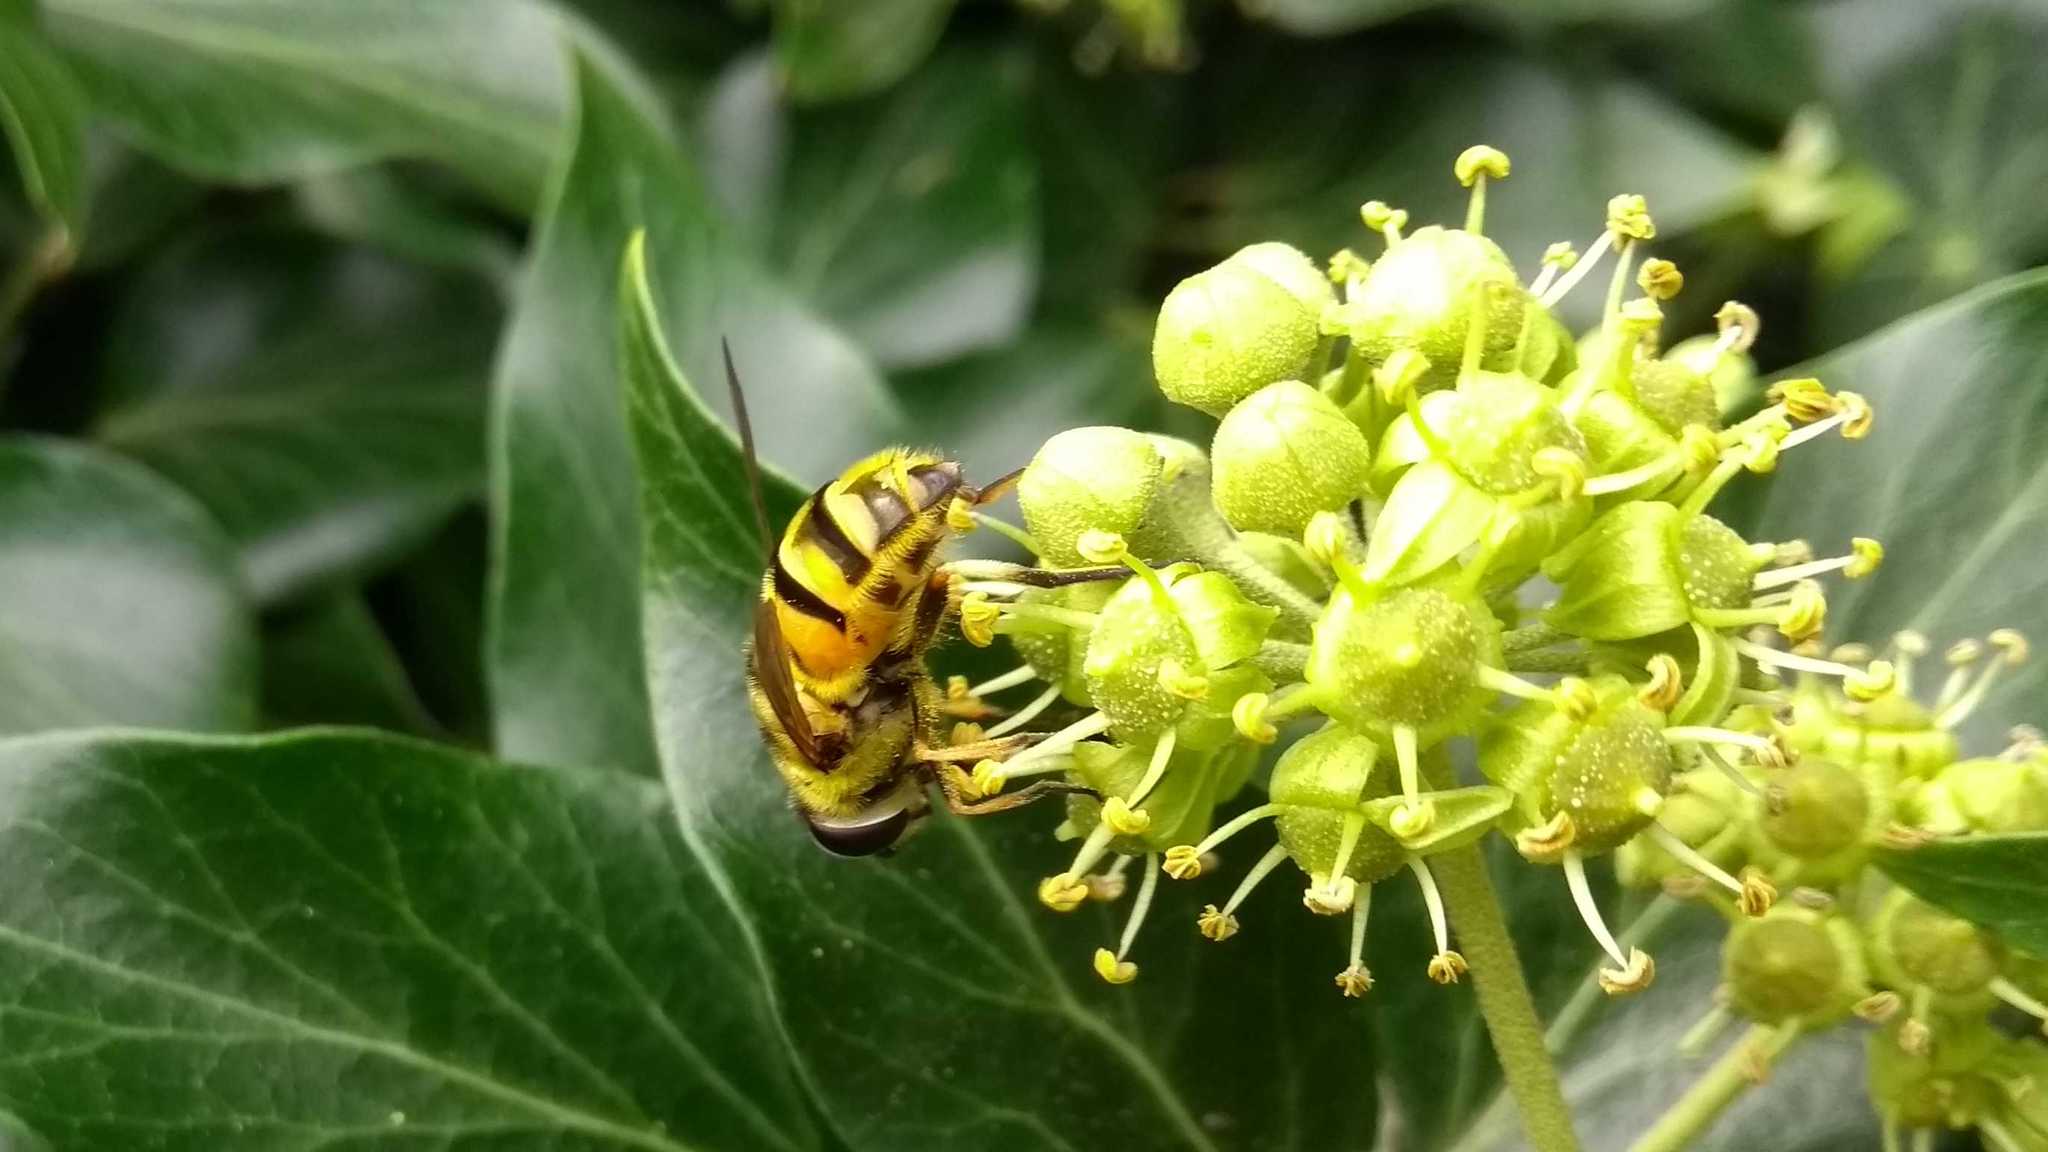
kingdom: Animalia
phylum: Arthropoda
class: Insecta
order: Diptera
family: Syrphidae
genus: Myathropa
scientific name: Myathropa florea
